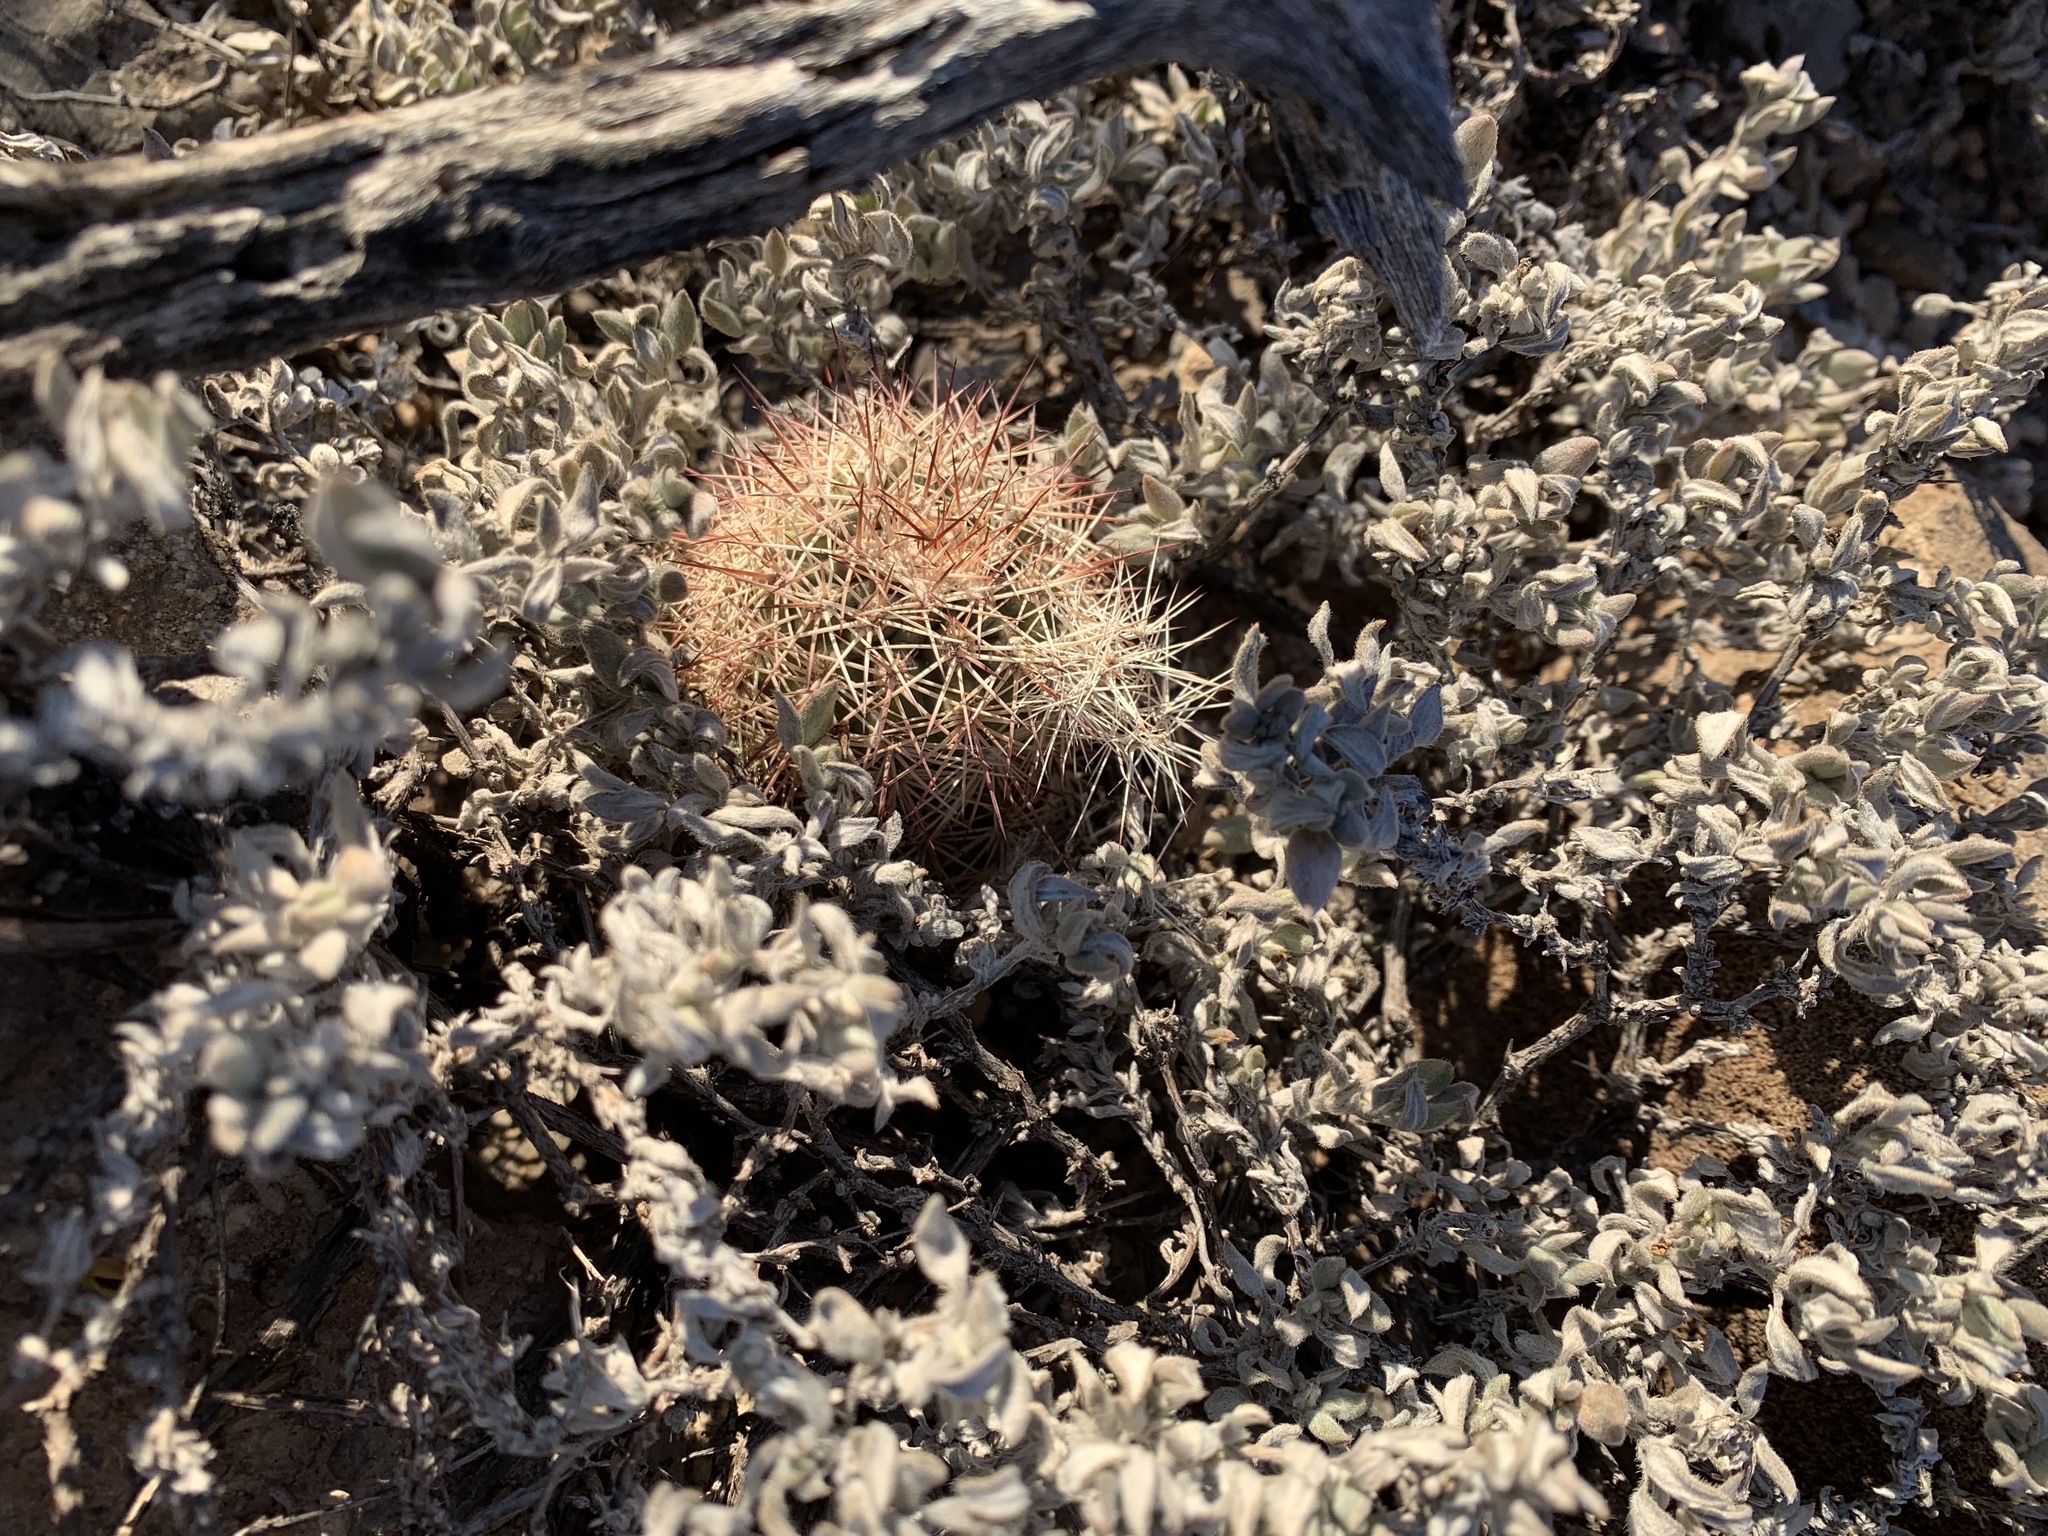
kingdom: Plantae
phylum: Tracheophyta
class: Magnoliopsida
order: Caryophyllales
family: Cactaceae
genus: Echinocereus
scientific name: Echinocereus dasyacanthus
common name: Spiny hedgehog cactus
